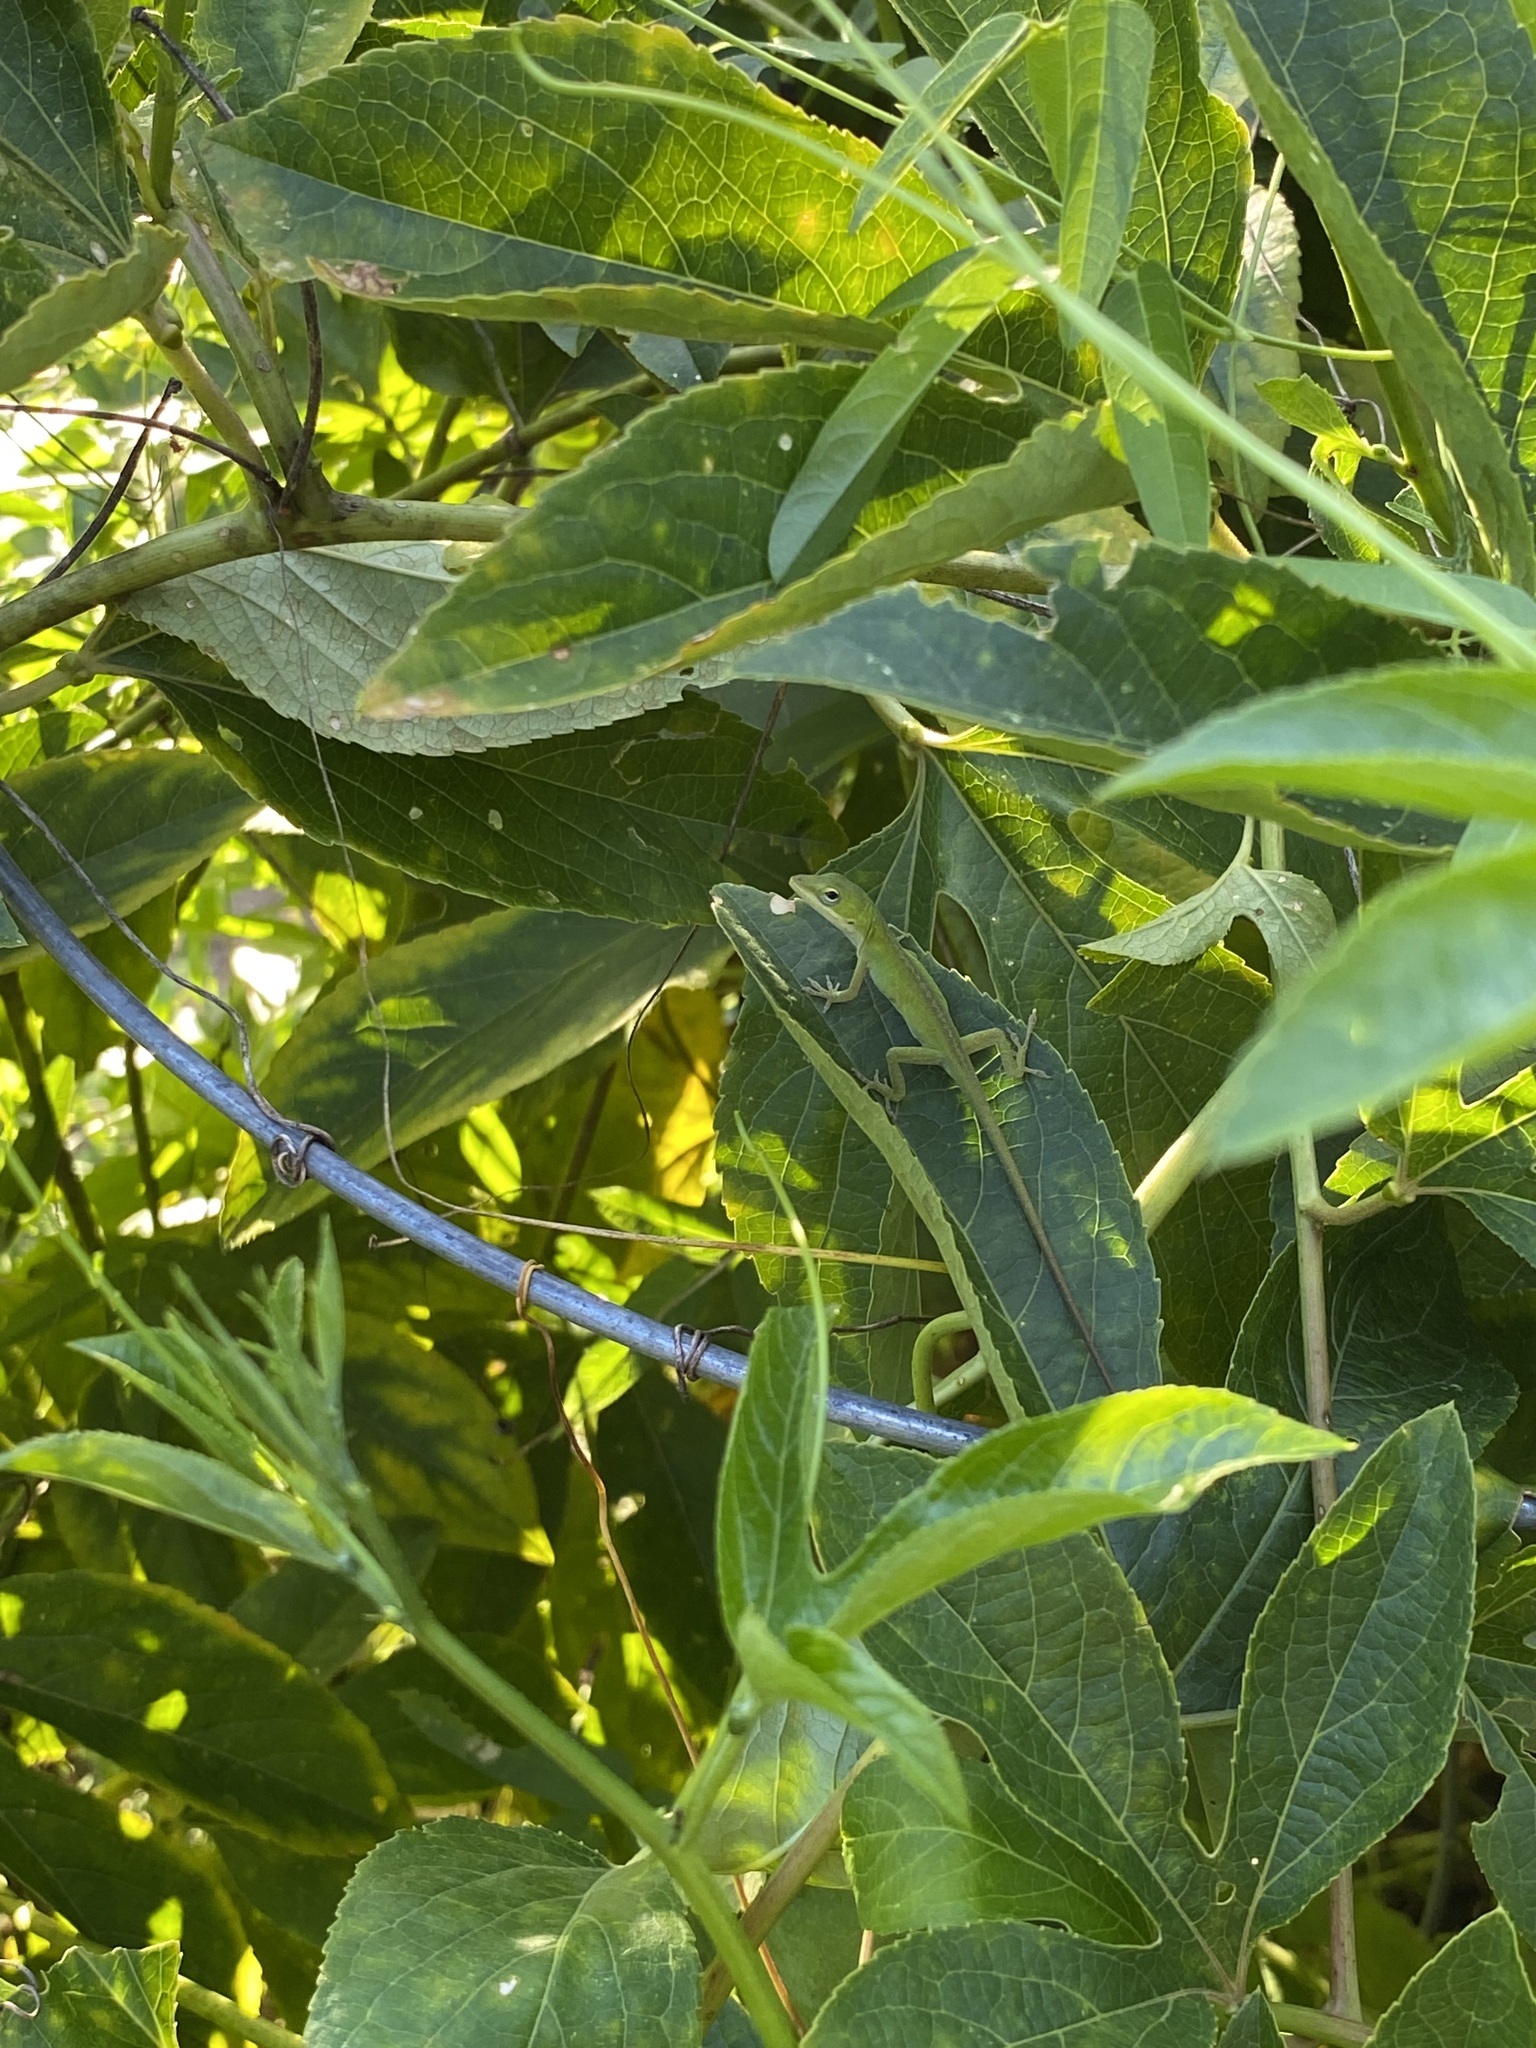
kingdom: Animalia
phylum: Chordata
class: Squamata
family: Dactyloidae
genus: Anolis
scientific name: Anolis carolinensis
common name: Green anole
